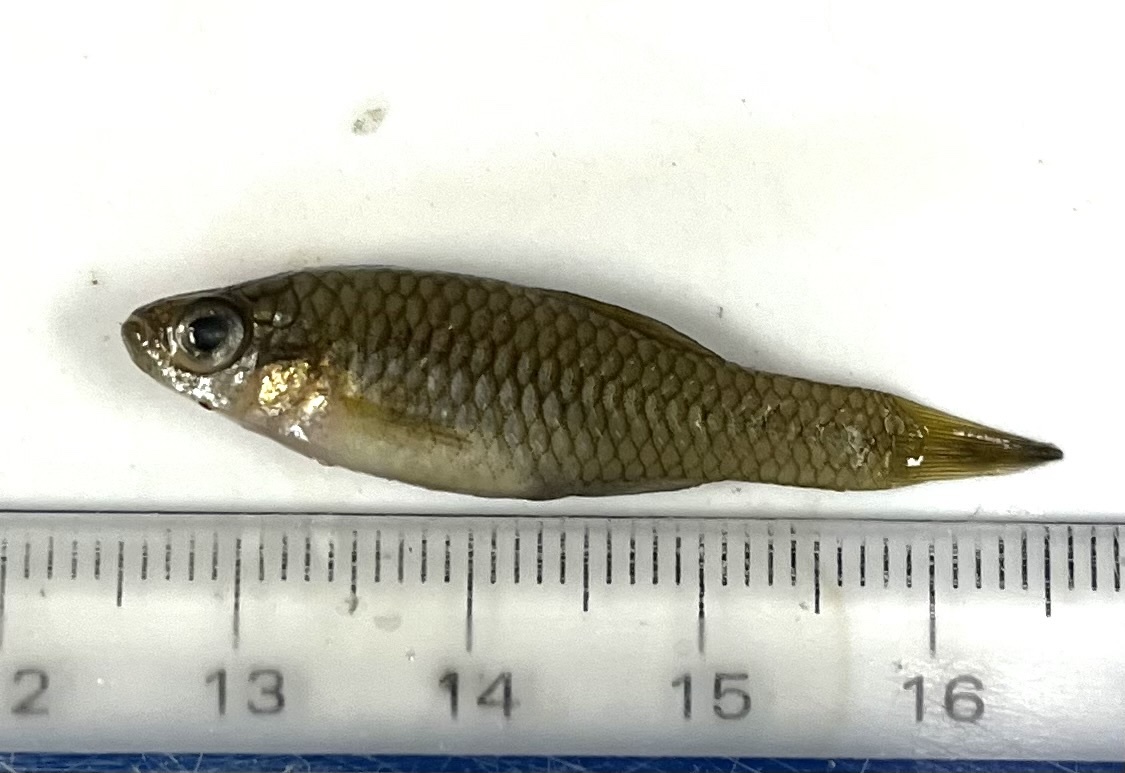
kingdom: Animalia
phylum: Chordata
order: Cyprinodontiformes
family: Fundulidae
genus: Lucania
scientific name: Lucania parva
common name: Rainwater killifish
